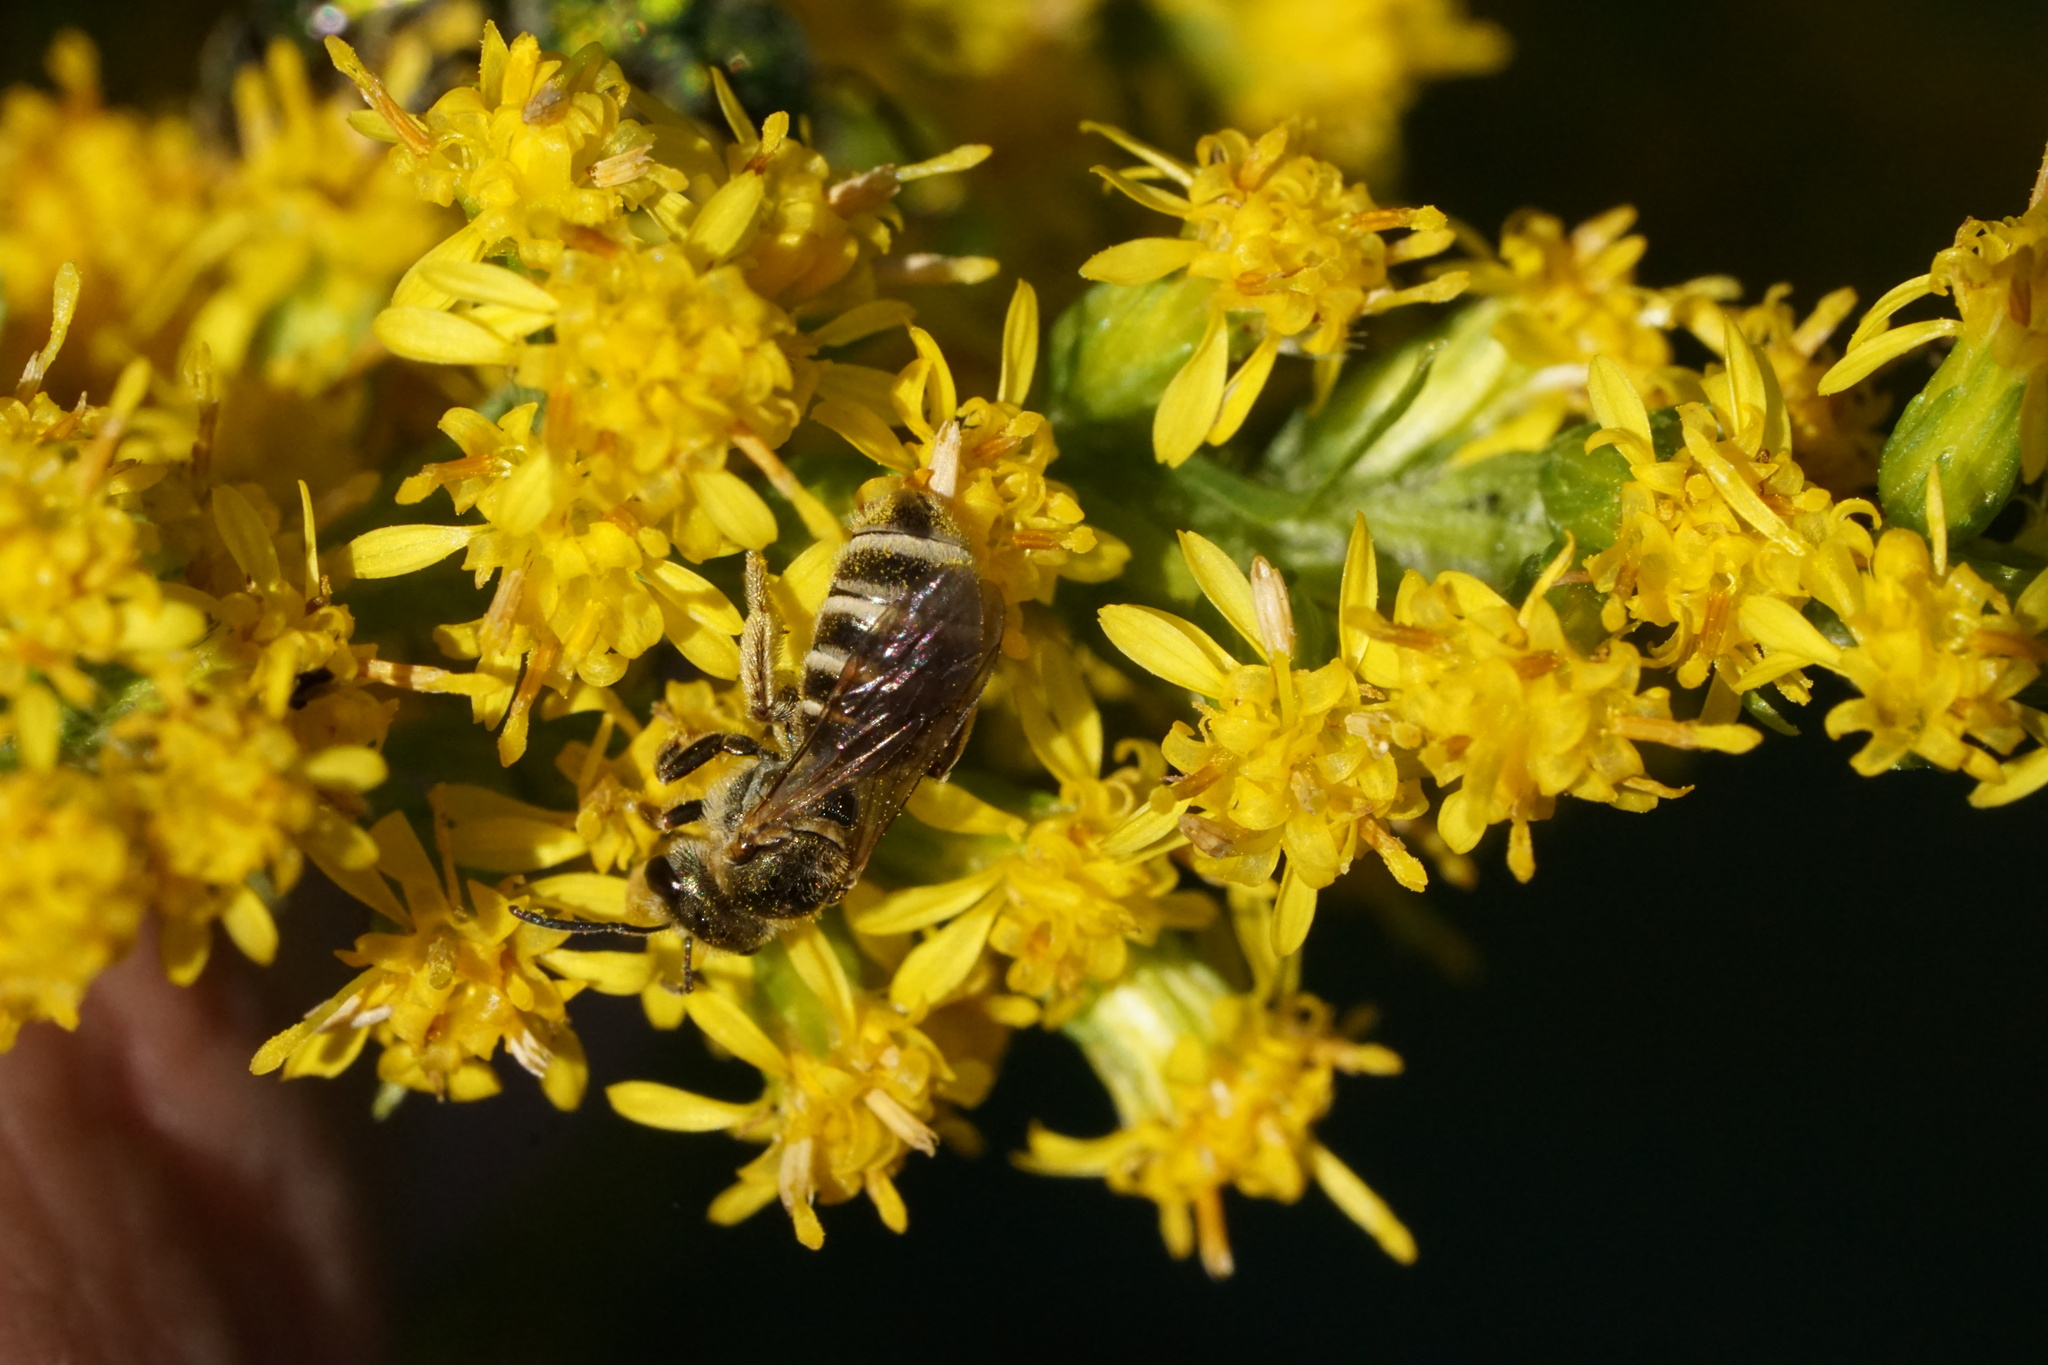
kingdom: Animalia
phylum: Arthropoda
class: Insecta
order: Hymenoptera
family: Halictidae
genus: Halictus
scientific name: Halictus confusus
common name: Southern bronze furrow bee
